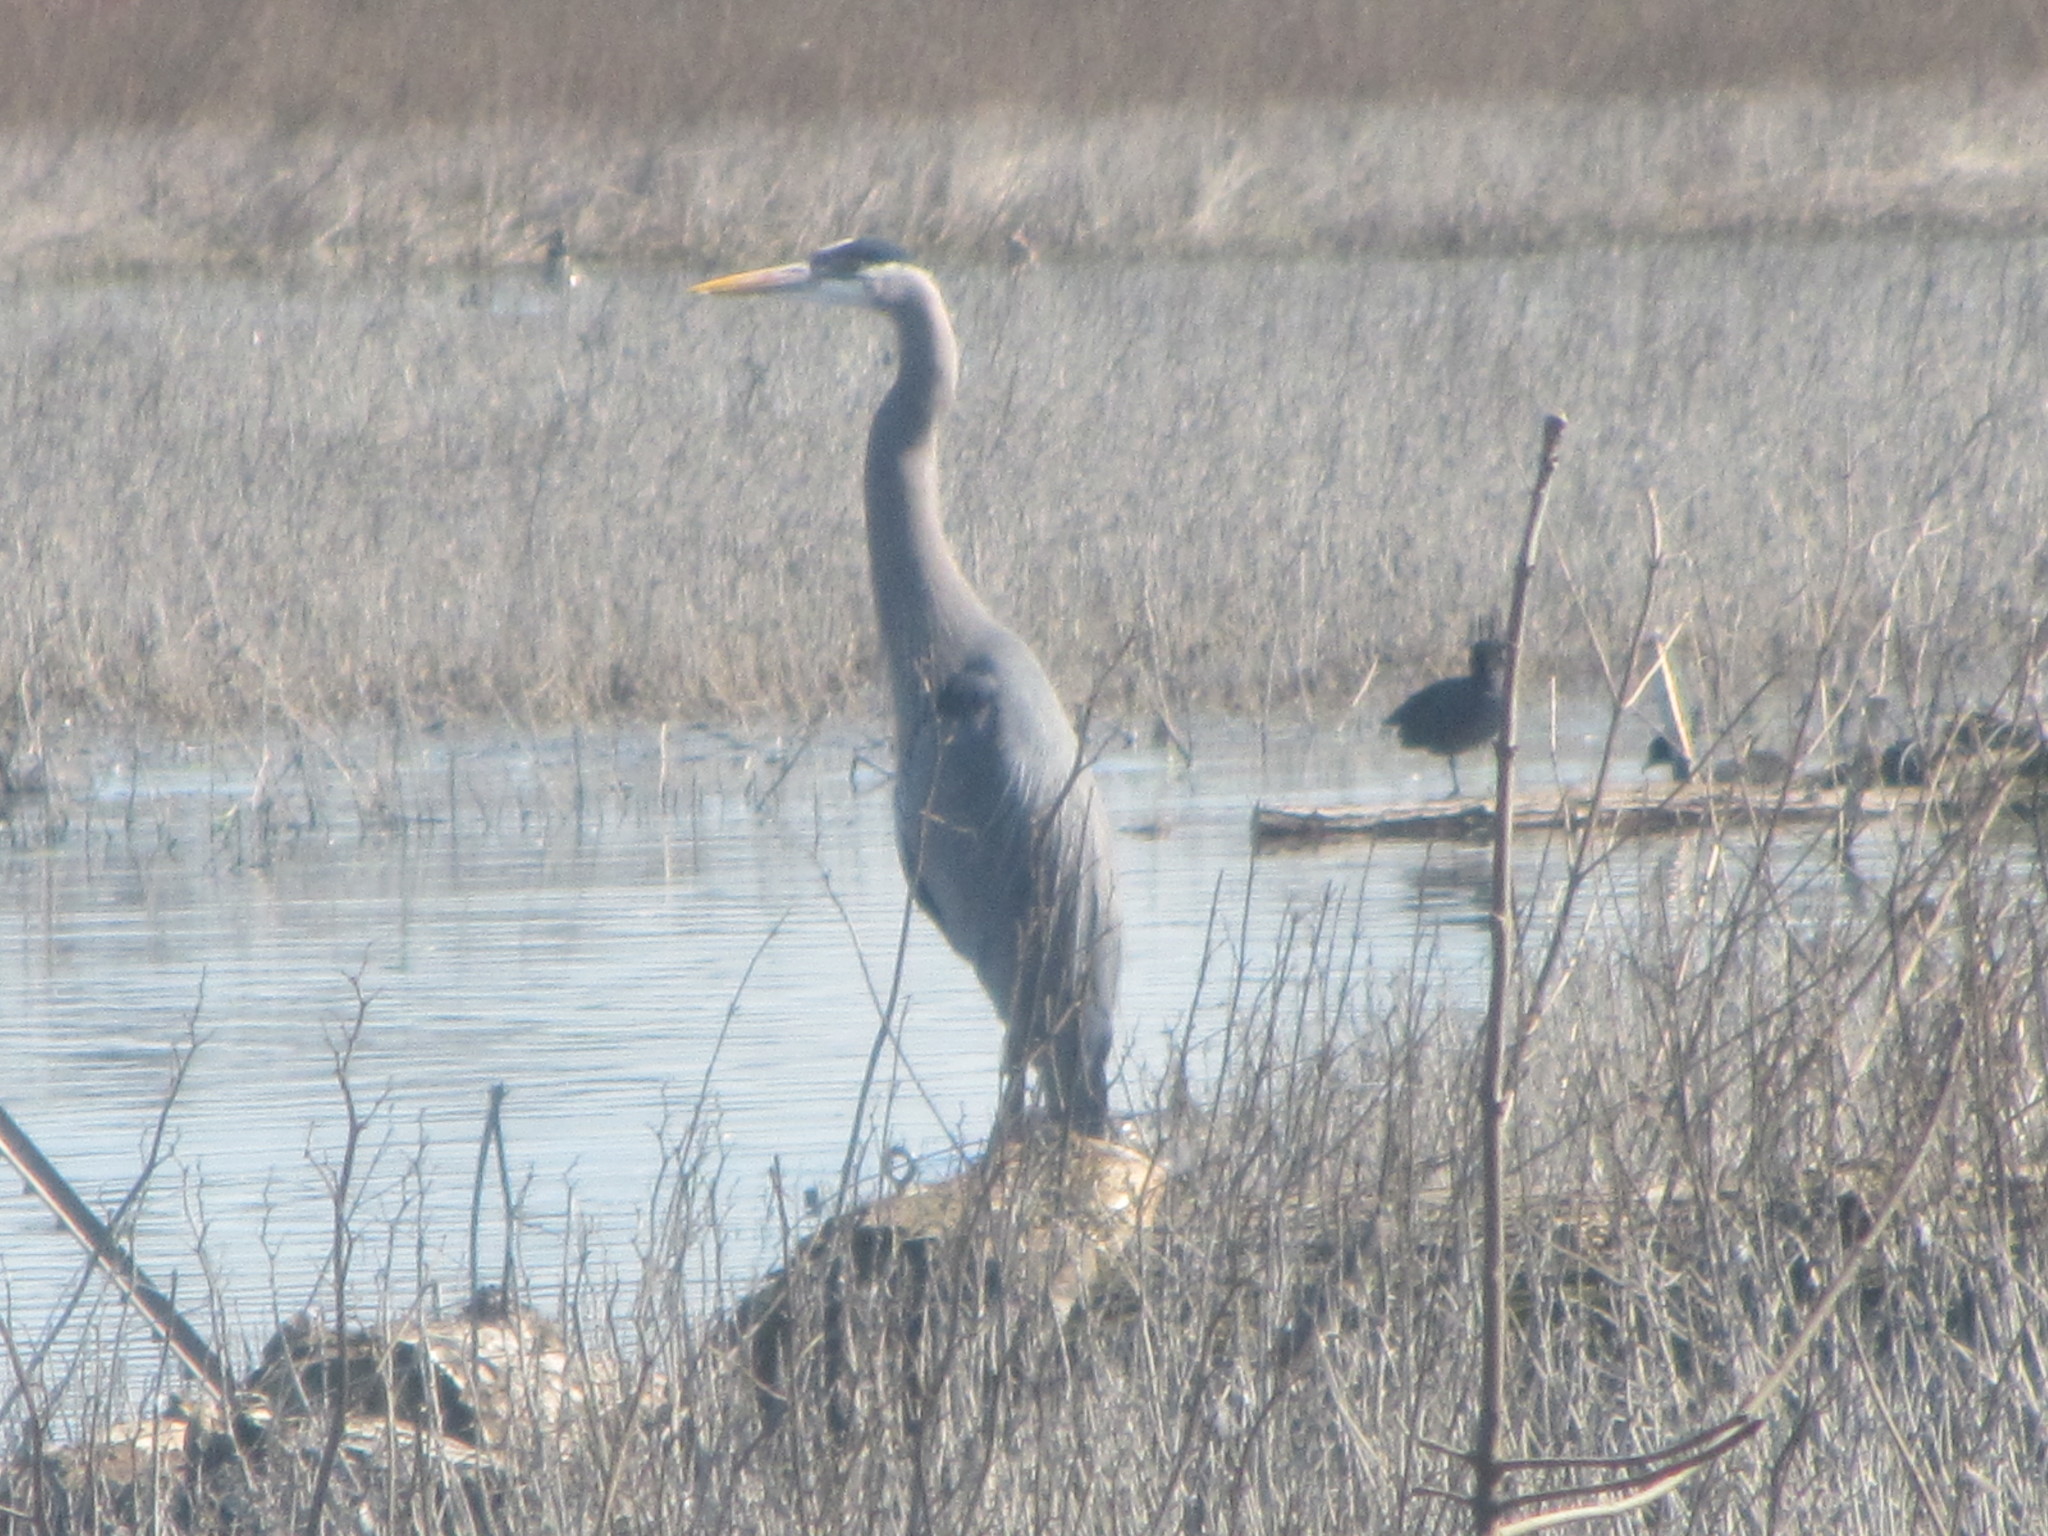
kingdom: Animalia
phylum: Chordata
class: Aves
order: Pelecaniformes
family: Ardeidae
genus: Ardea
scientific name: Ardea herodias
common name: Great blue heron
